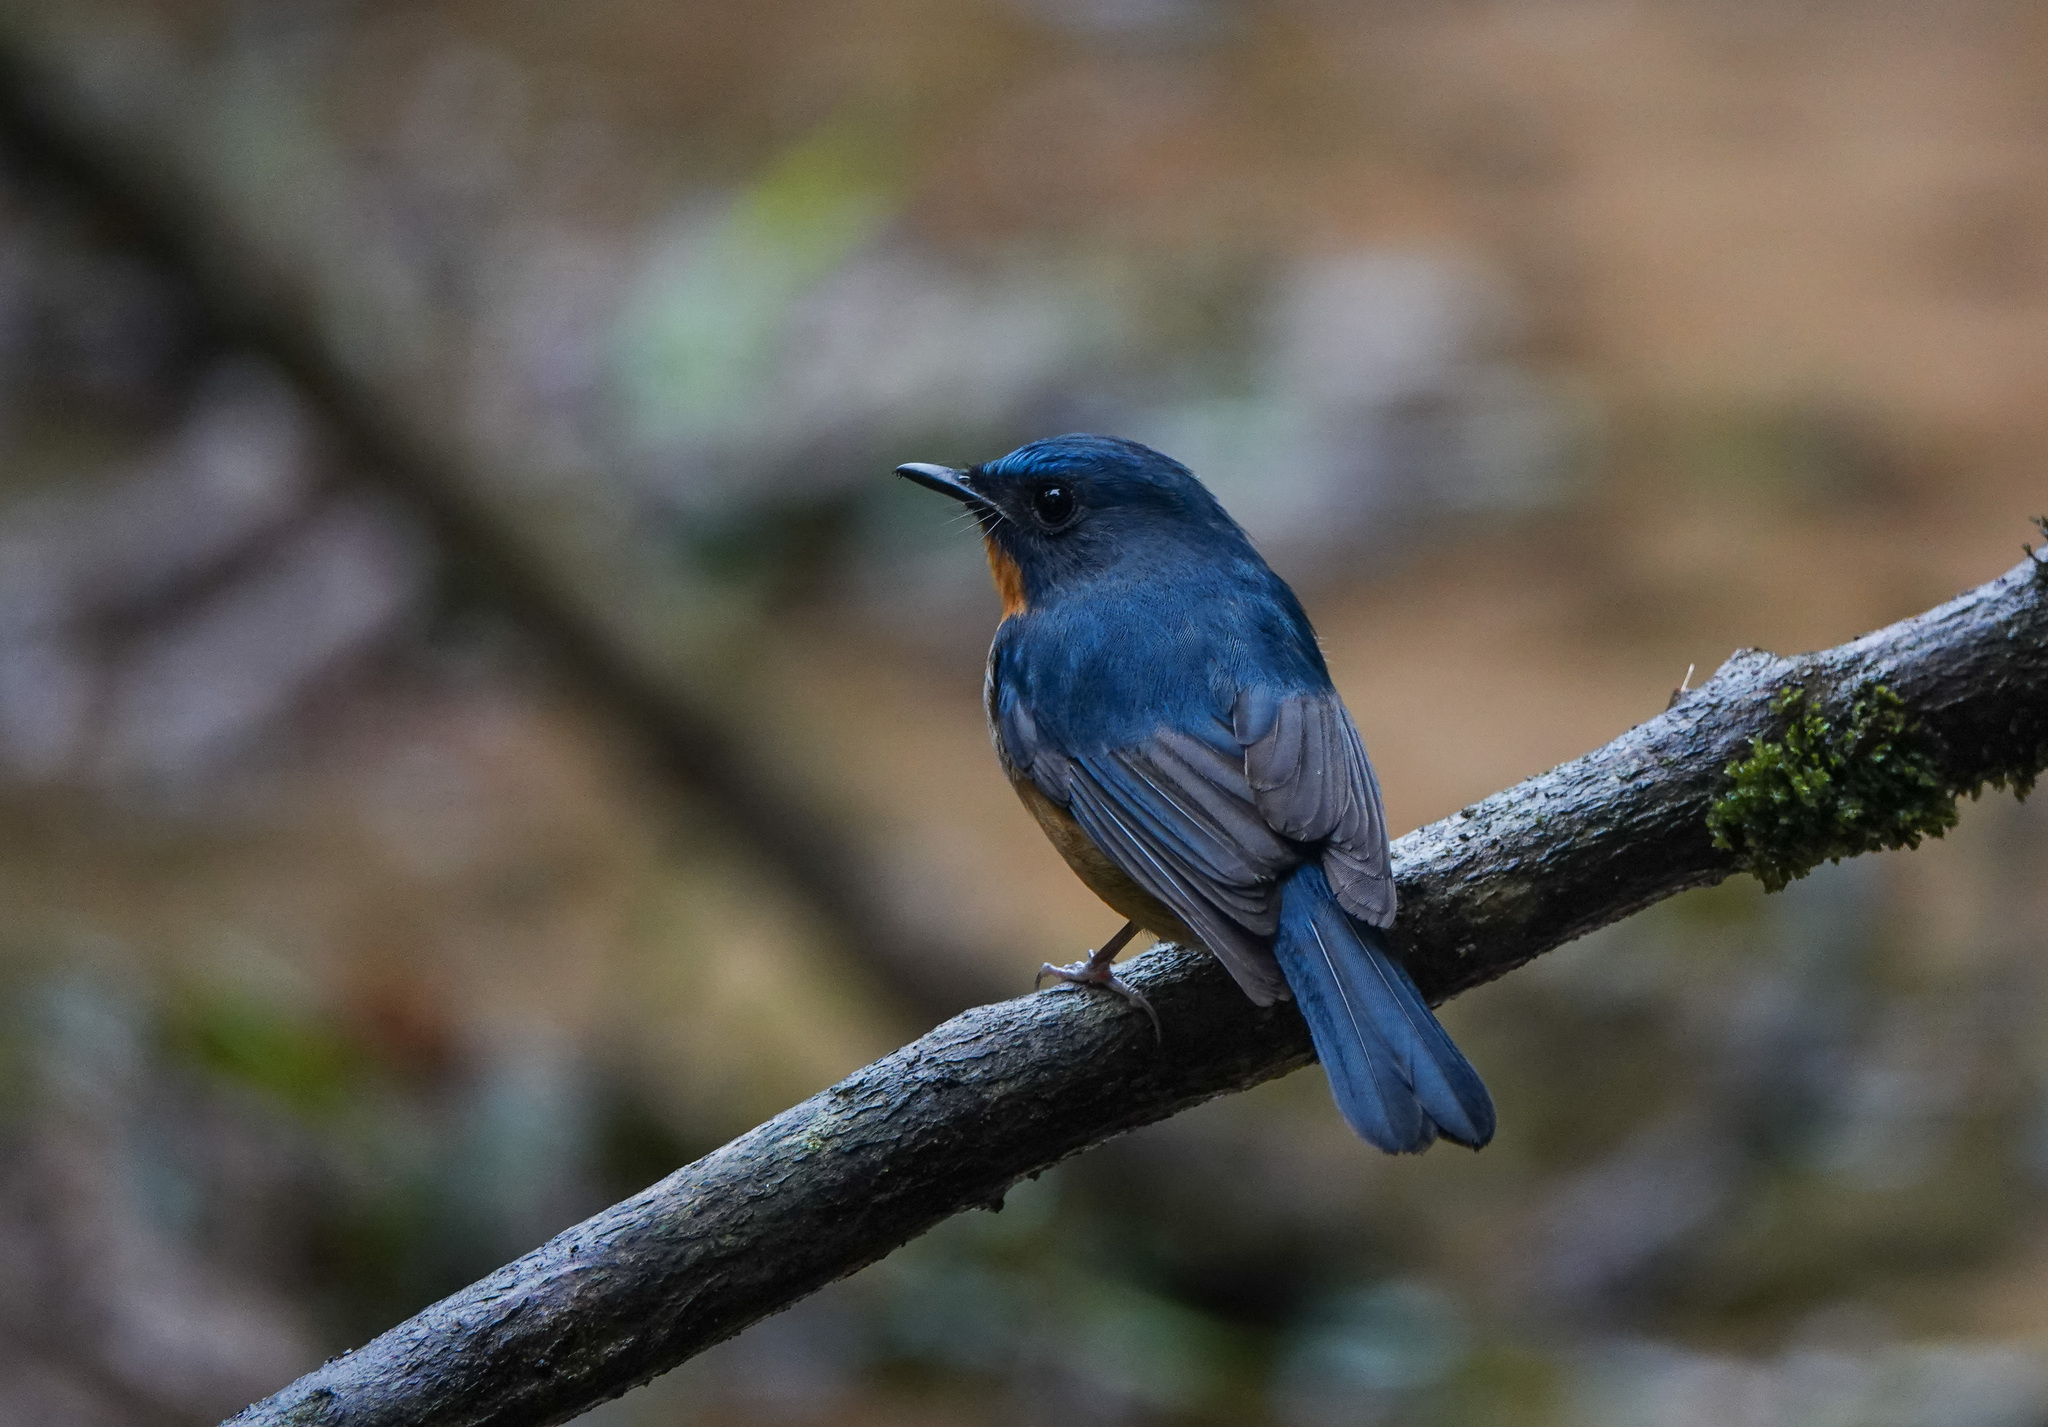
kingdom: Animalia
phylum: Chordata
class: Aves
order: Passeriformes
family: Muscicapidae
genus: Cyornis
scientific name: Cyornis whitei
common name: Hill blue flycatcher
